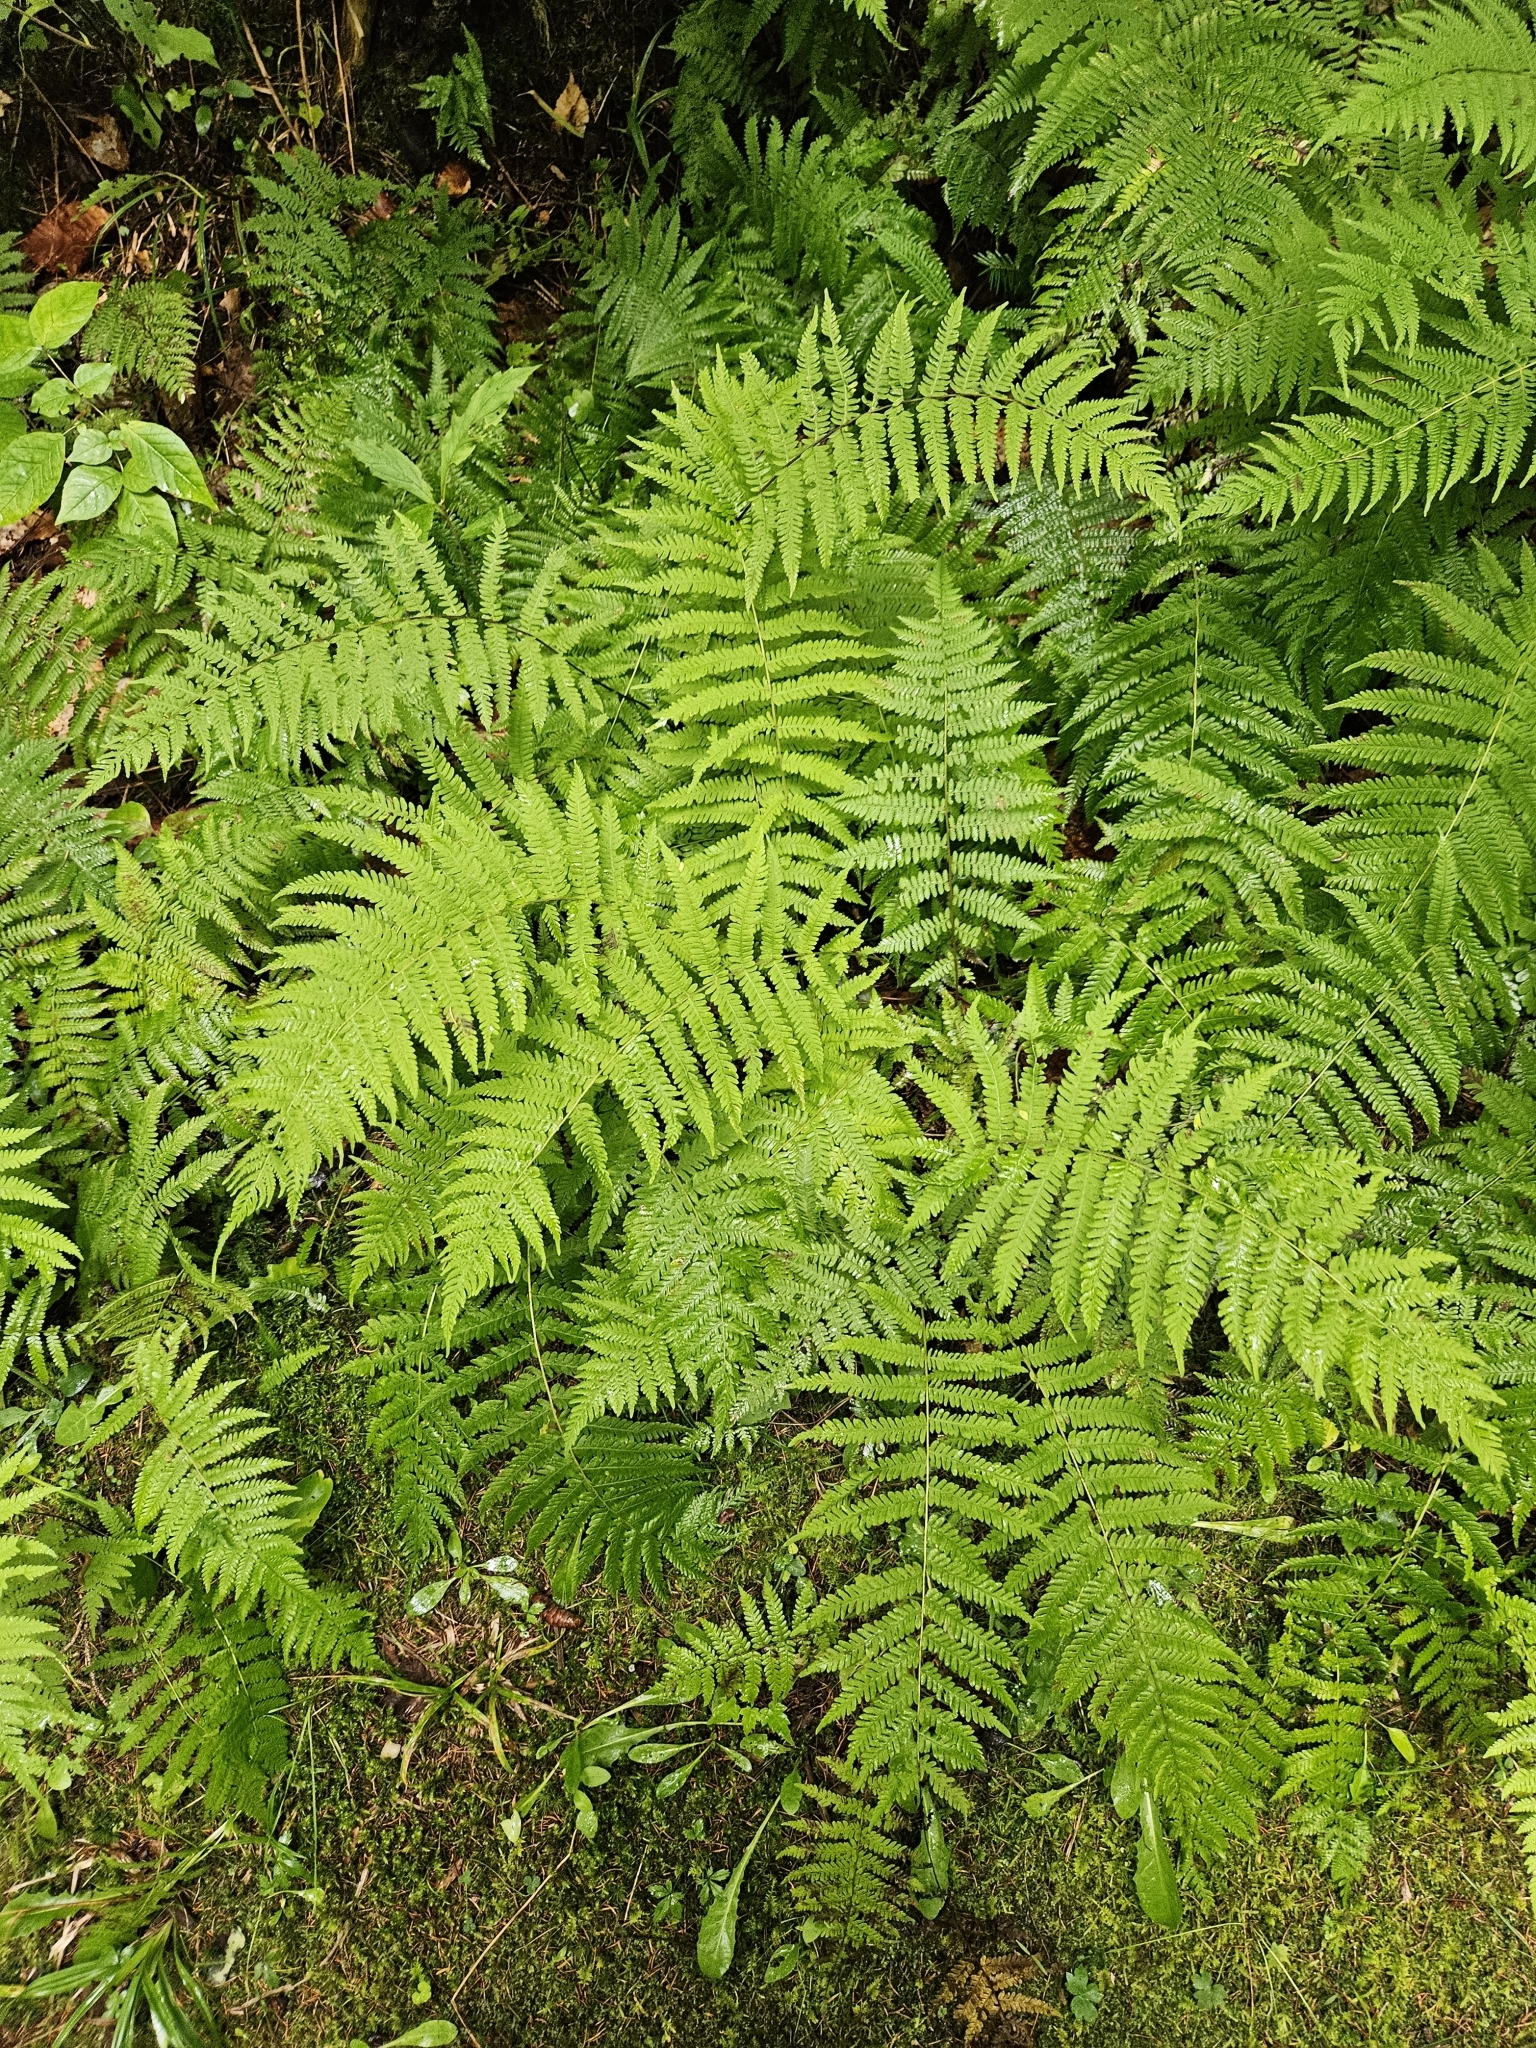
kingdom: Plantae
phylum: Tracheophyta
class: Polypodiopsida
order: Polypodiales
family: Thelypteridaceae
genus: Amauropelta
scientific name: Amauropelta noveboracensis
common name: New york fern
